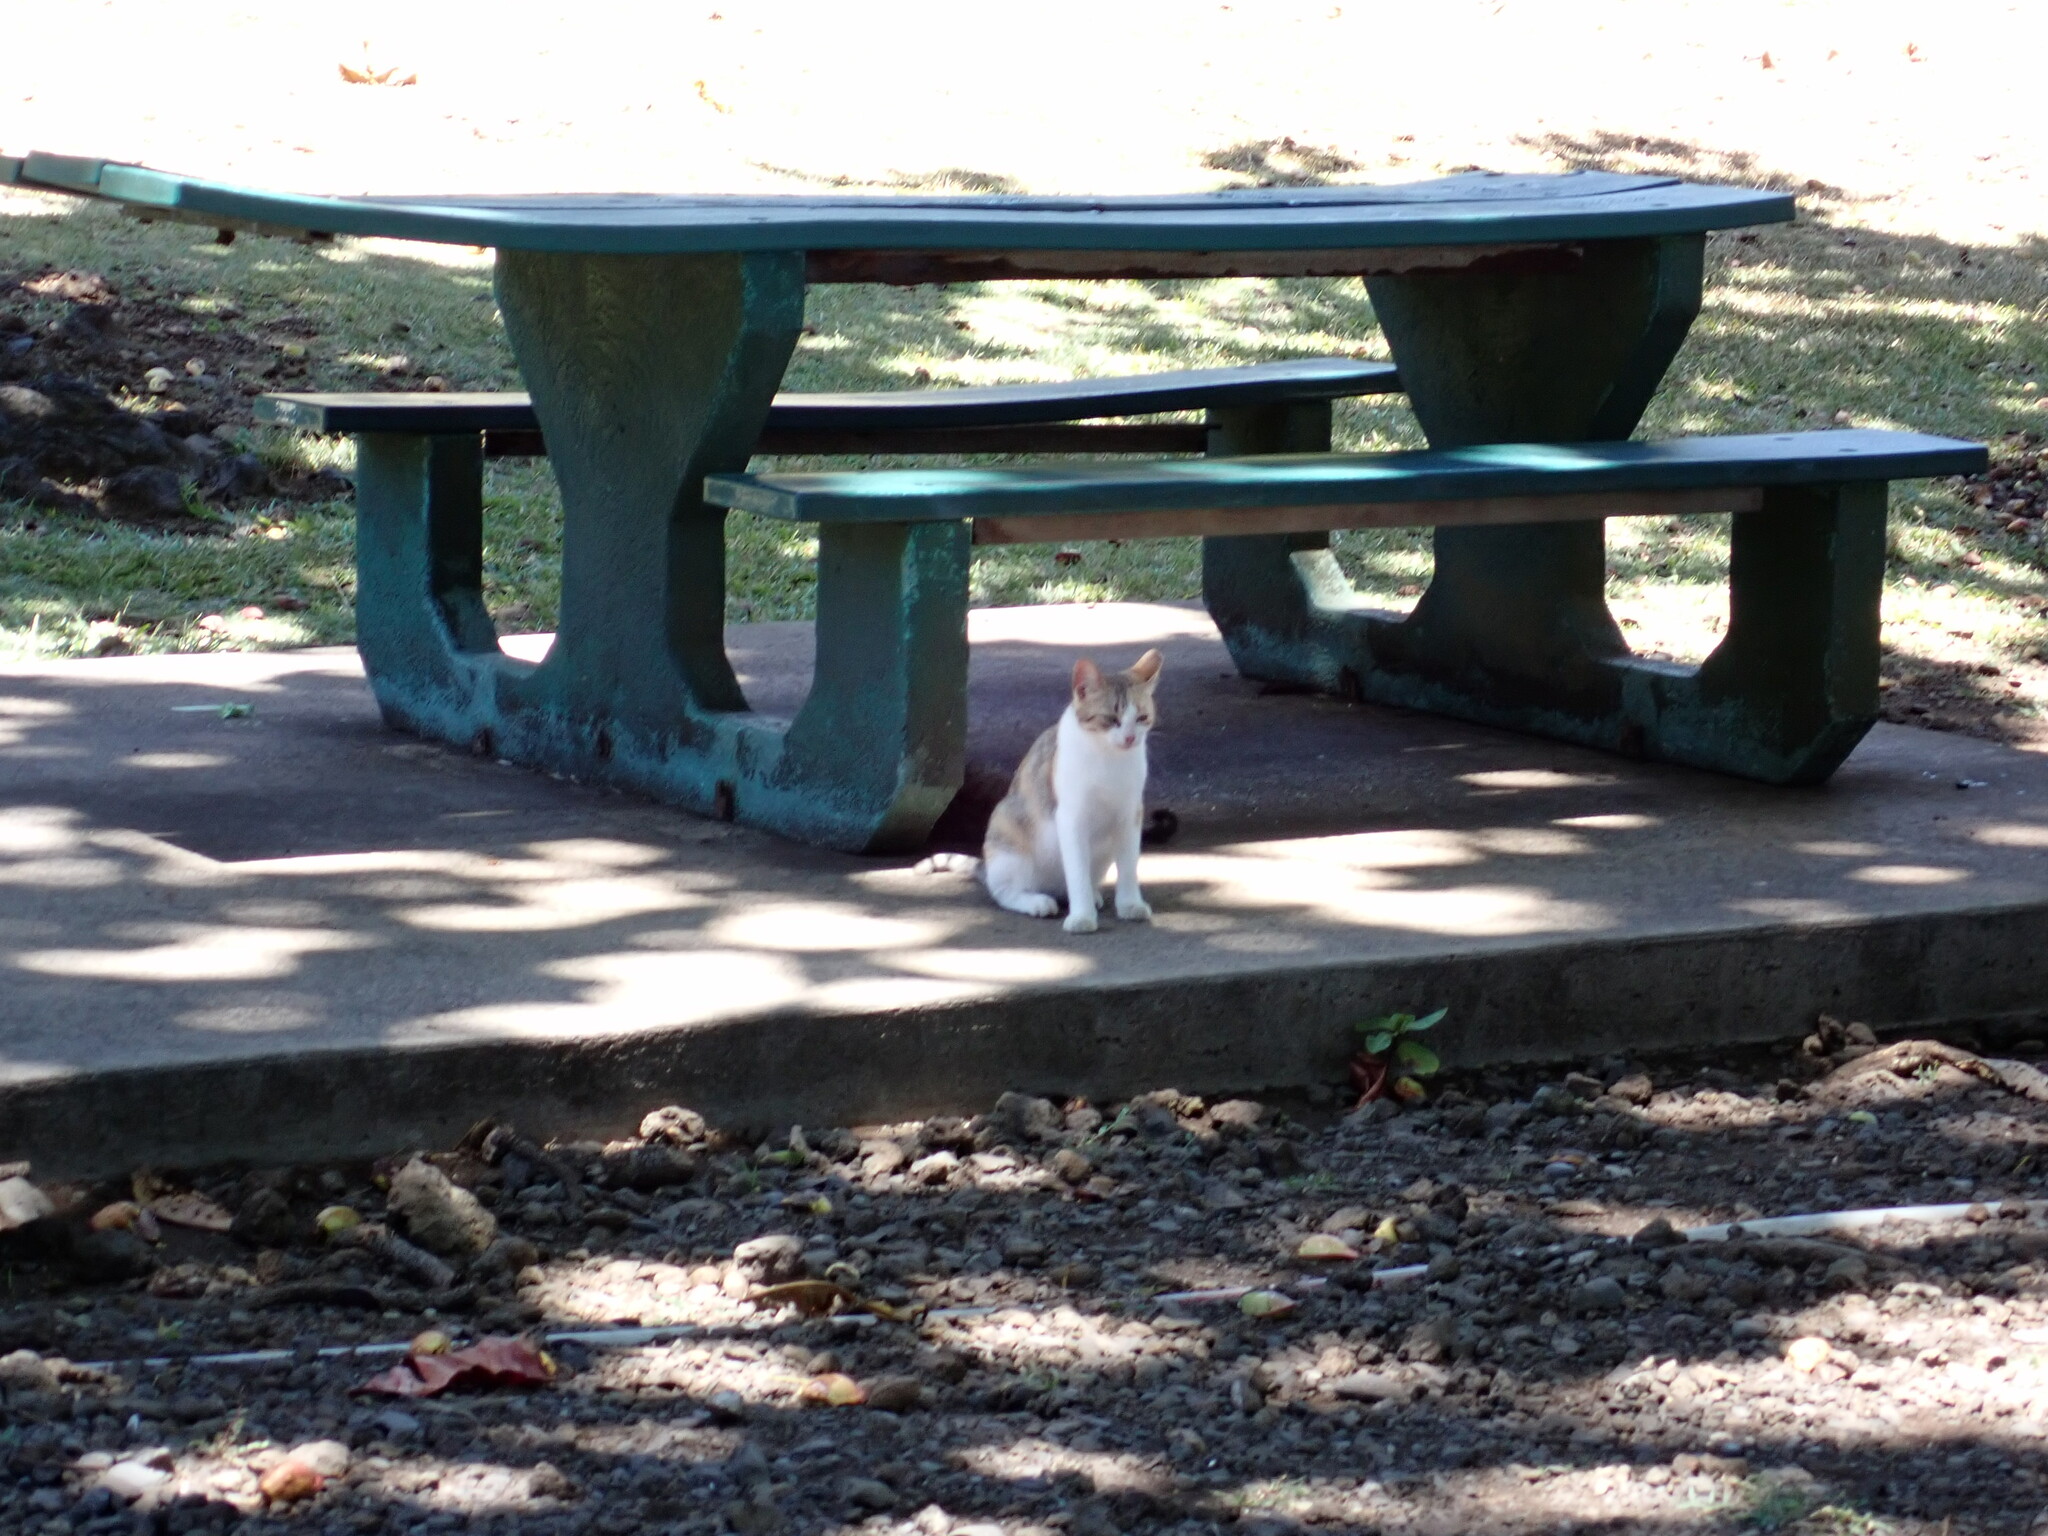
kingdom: Animalia
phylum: Chordata
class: Mammalia
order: Carnivora
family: Felidae
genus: Felis
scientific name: Felis catus
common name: Domestic cat
